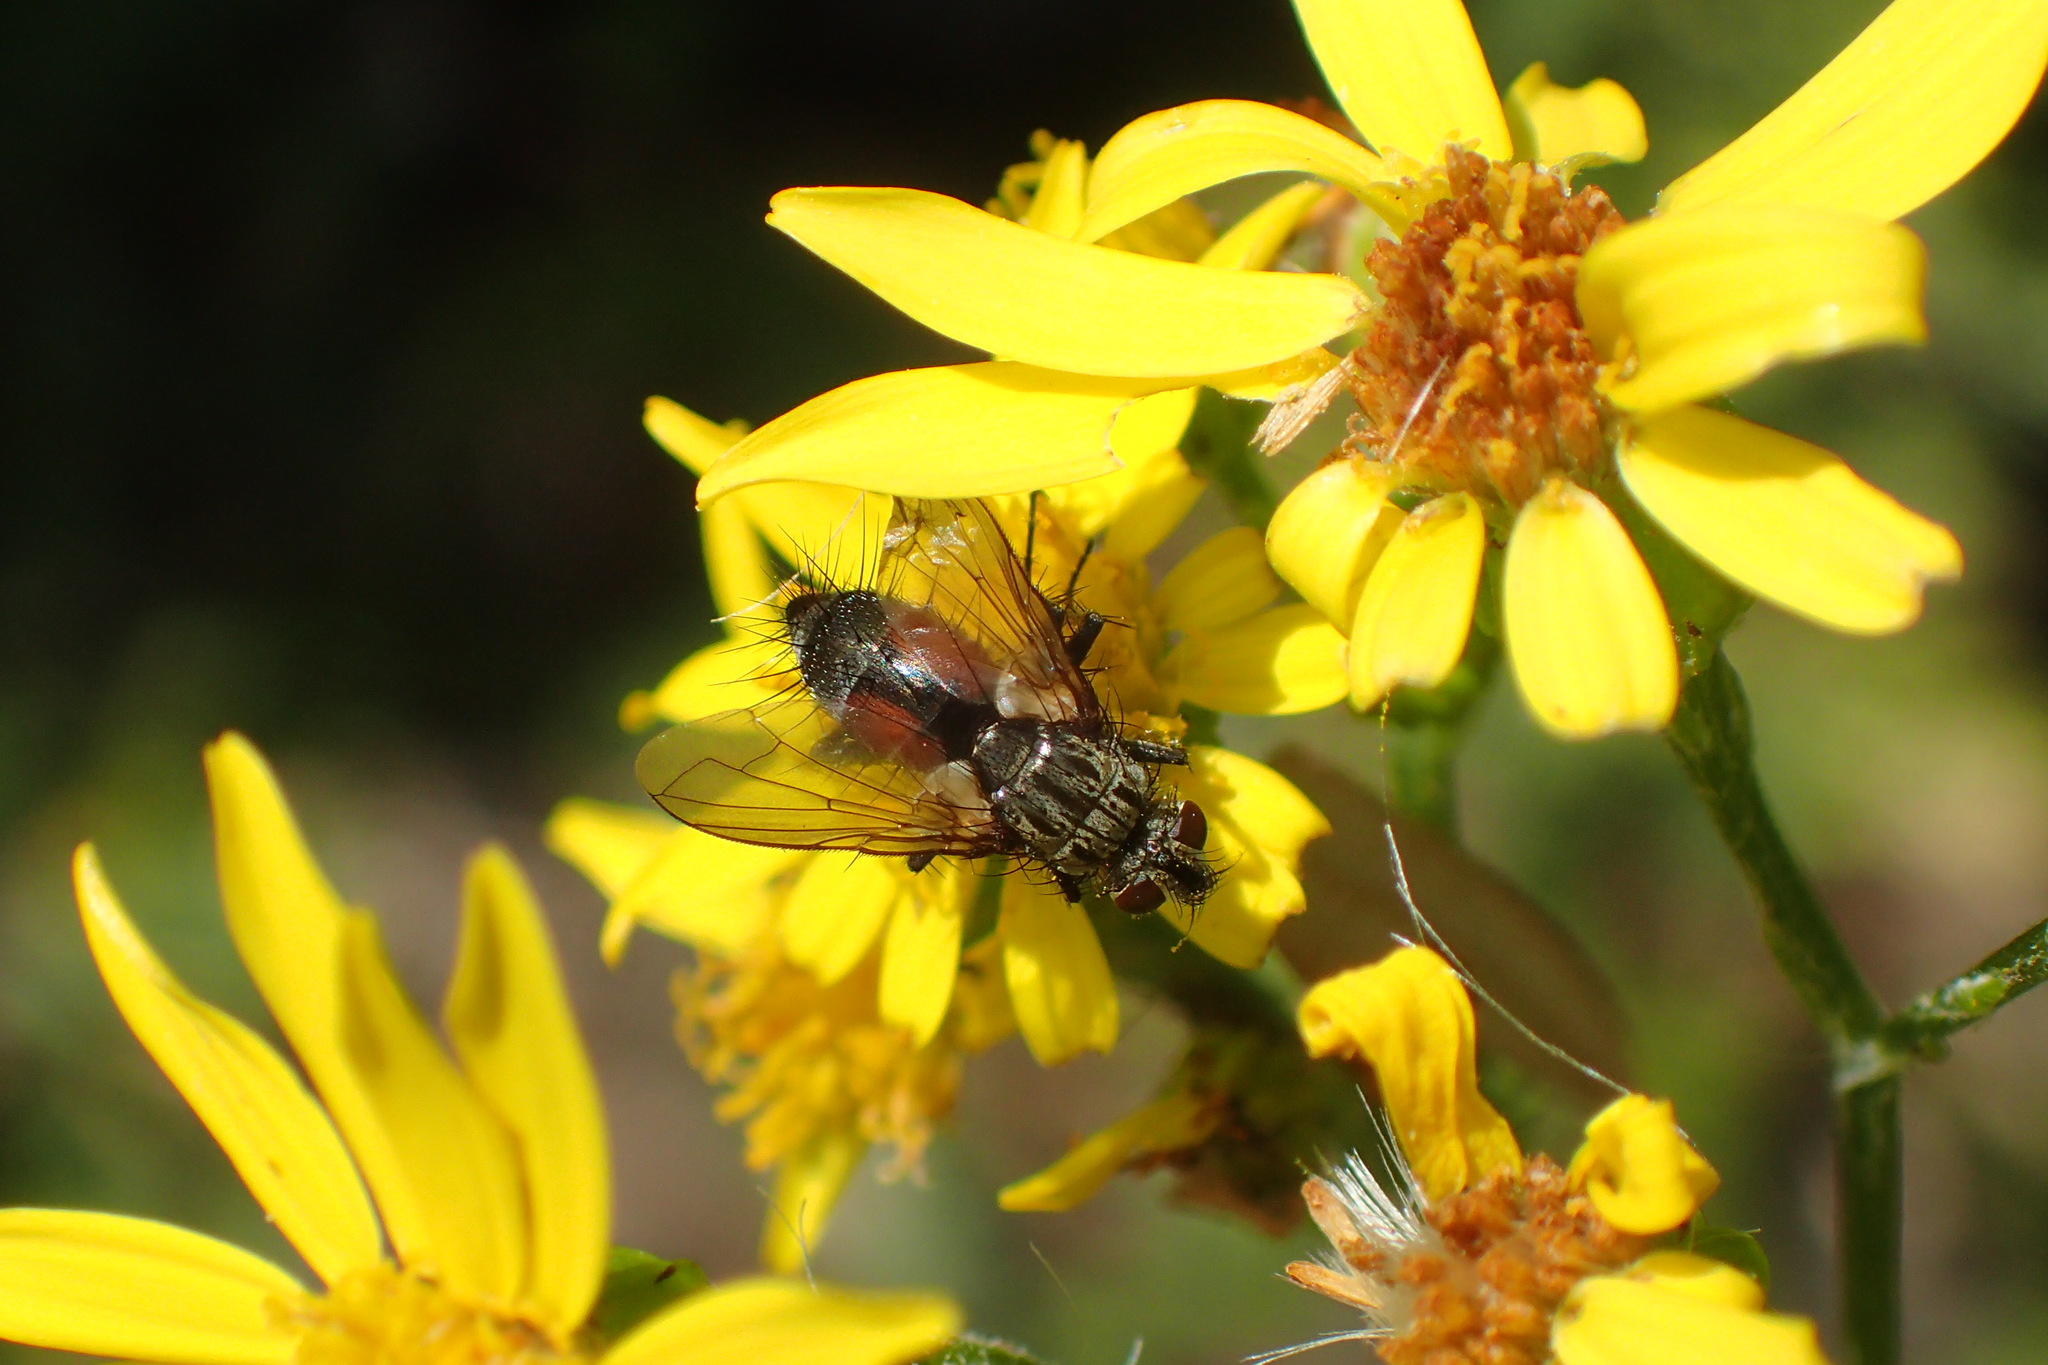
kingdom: Animalia
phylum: Arthropoda
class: Insecta
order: Diptera
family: Tachinidae
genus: Eriothrix
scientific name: Eriothrix rufomaculatus
